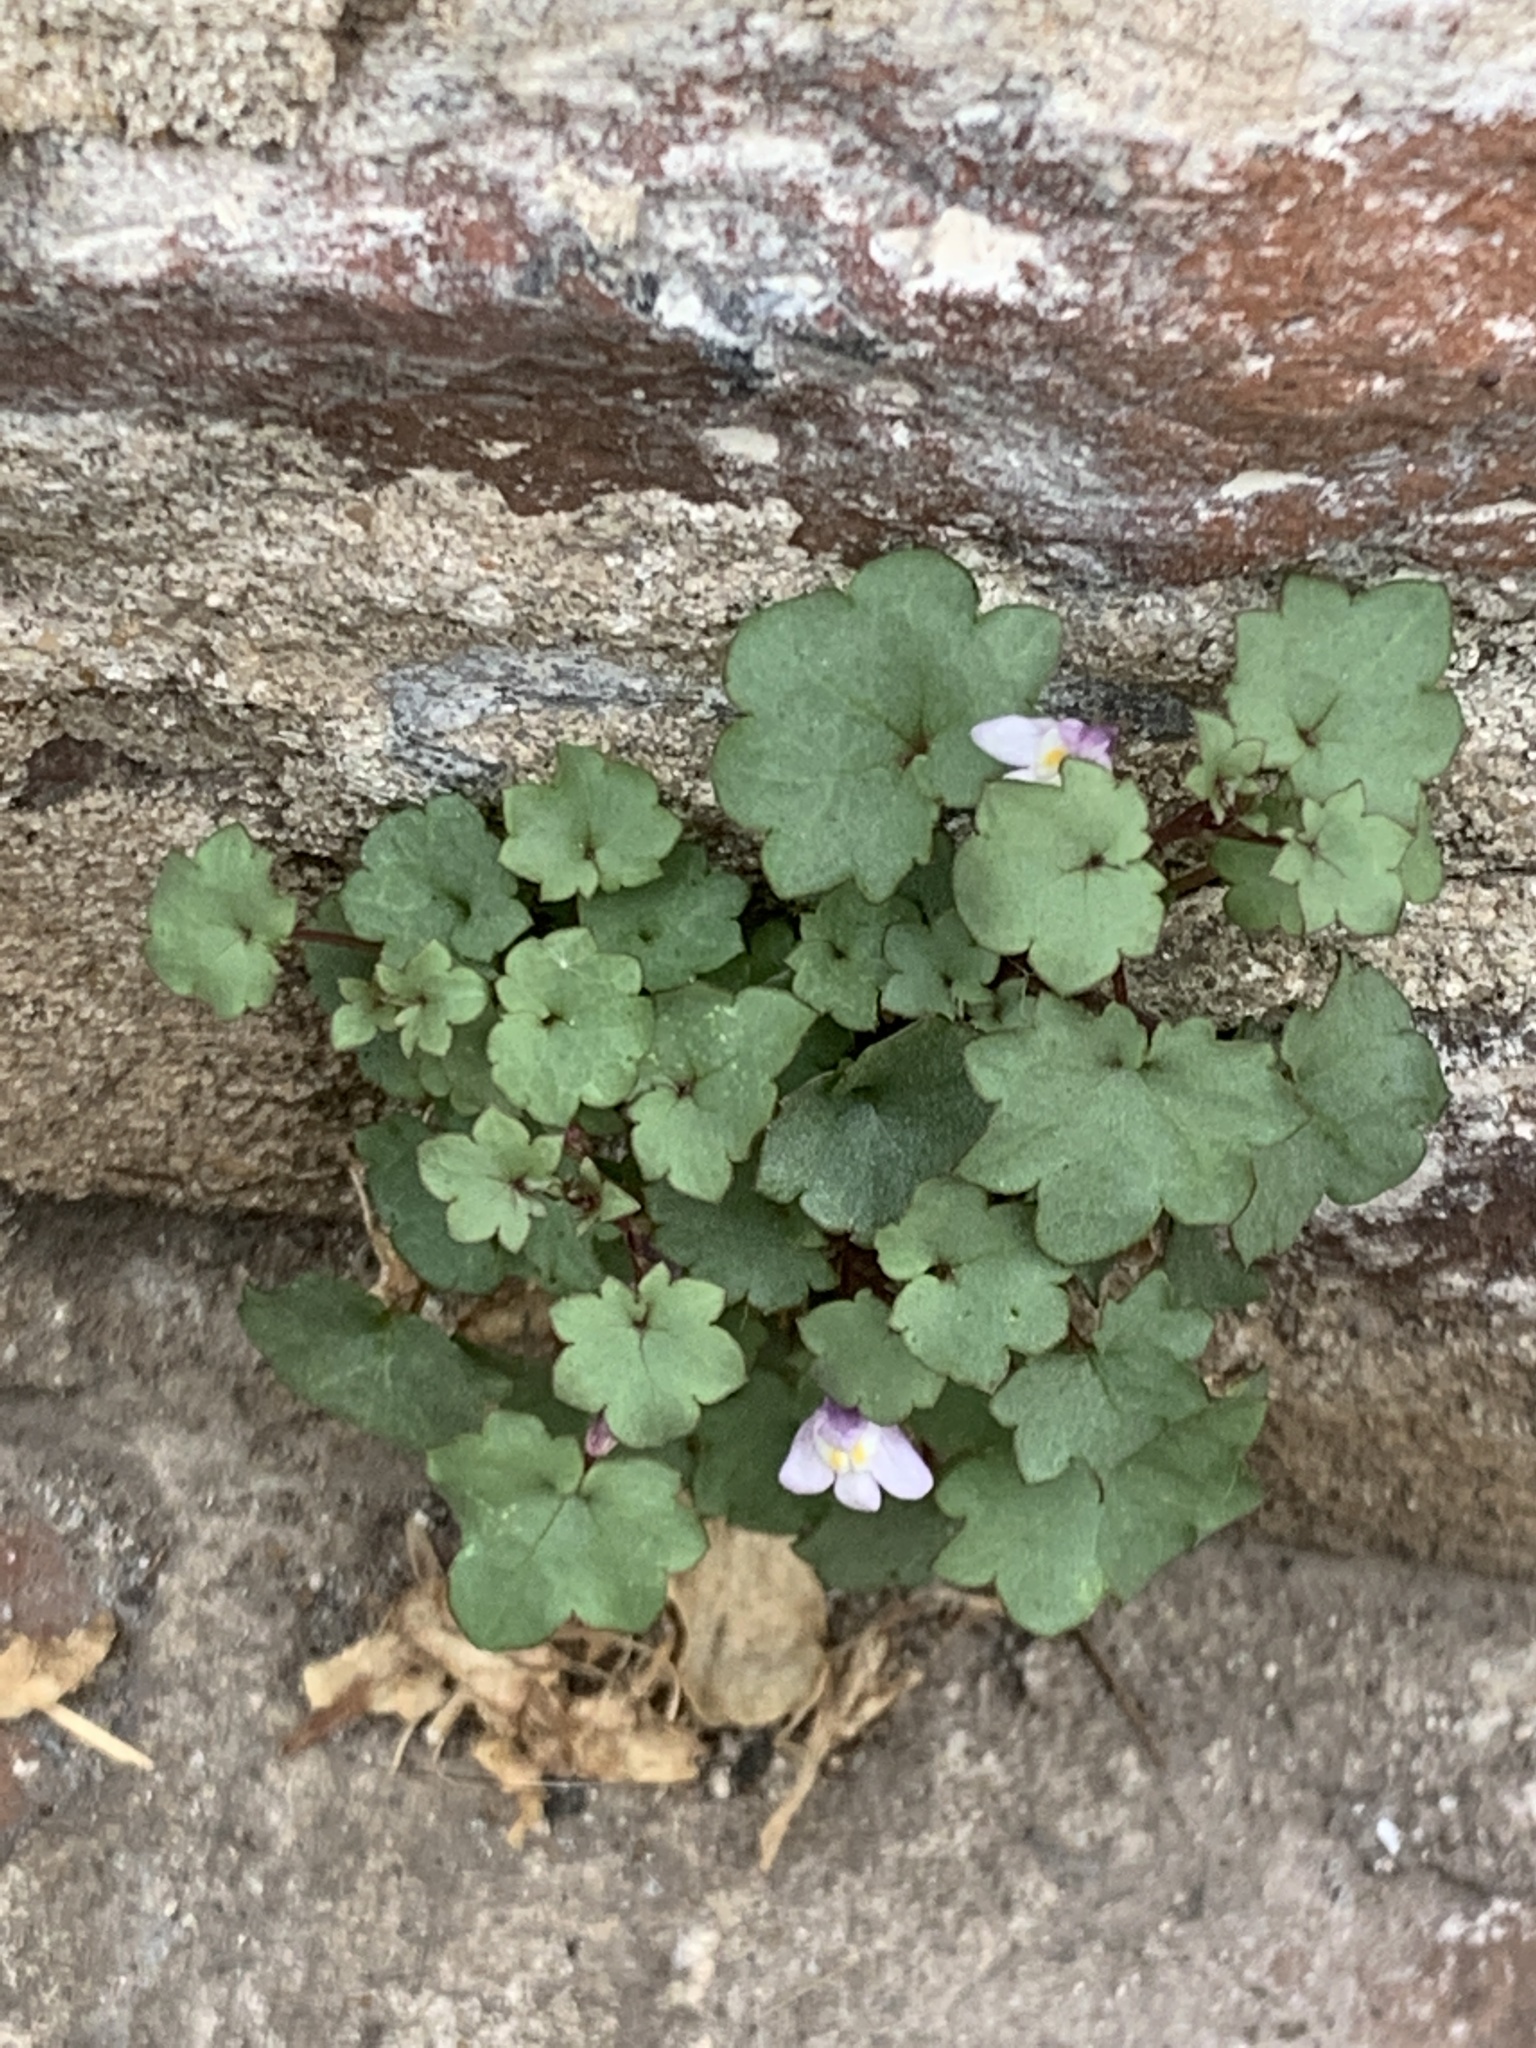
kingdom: Plantae
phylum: Tracheophyta
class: Magnoliopsida
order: Lamiales
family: Plantaginaceae
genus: Cymbalaria
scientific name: Cymbalaria muralis
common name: Ivy-leaved toadflax
